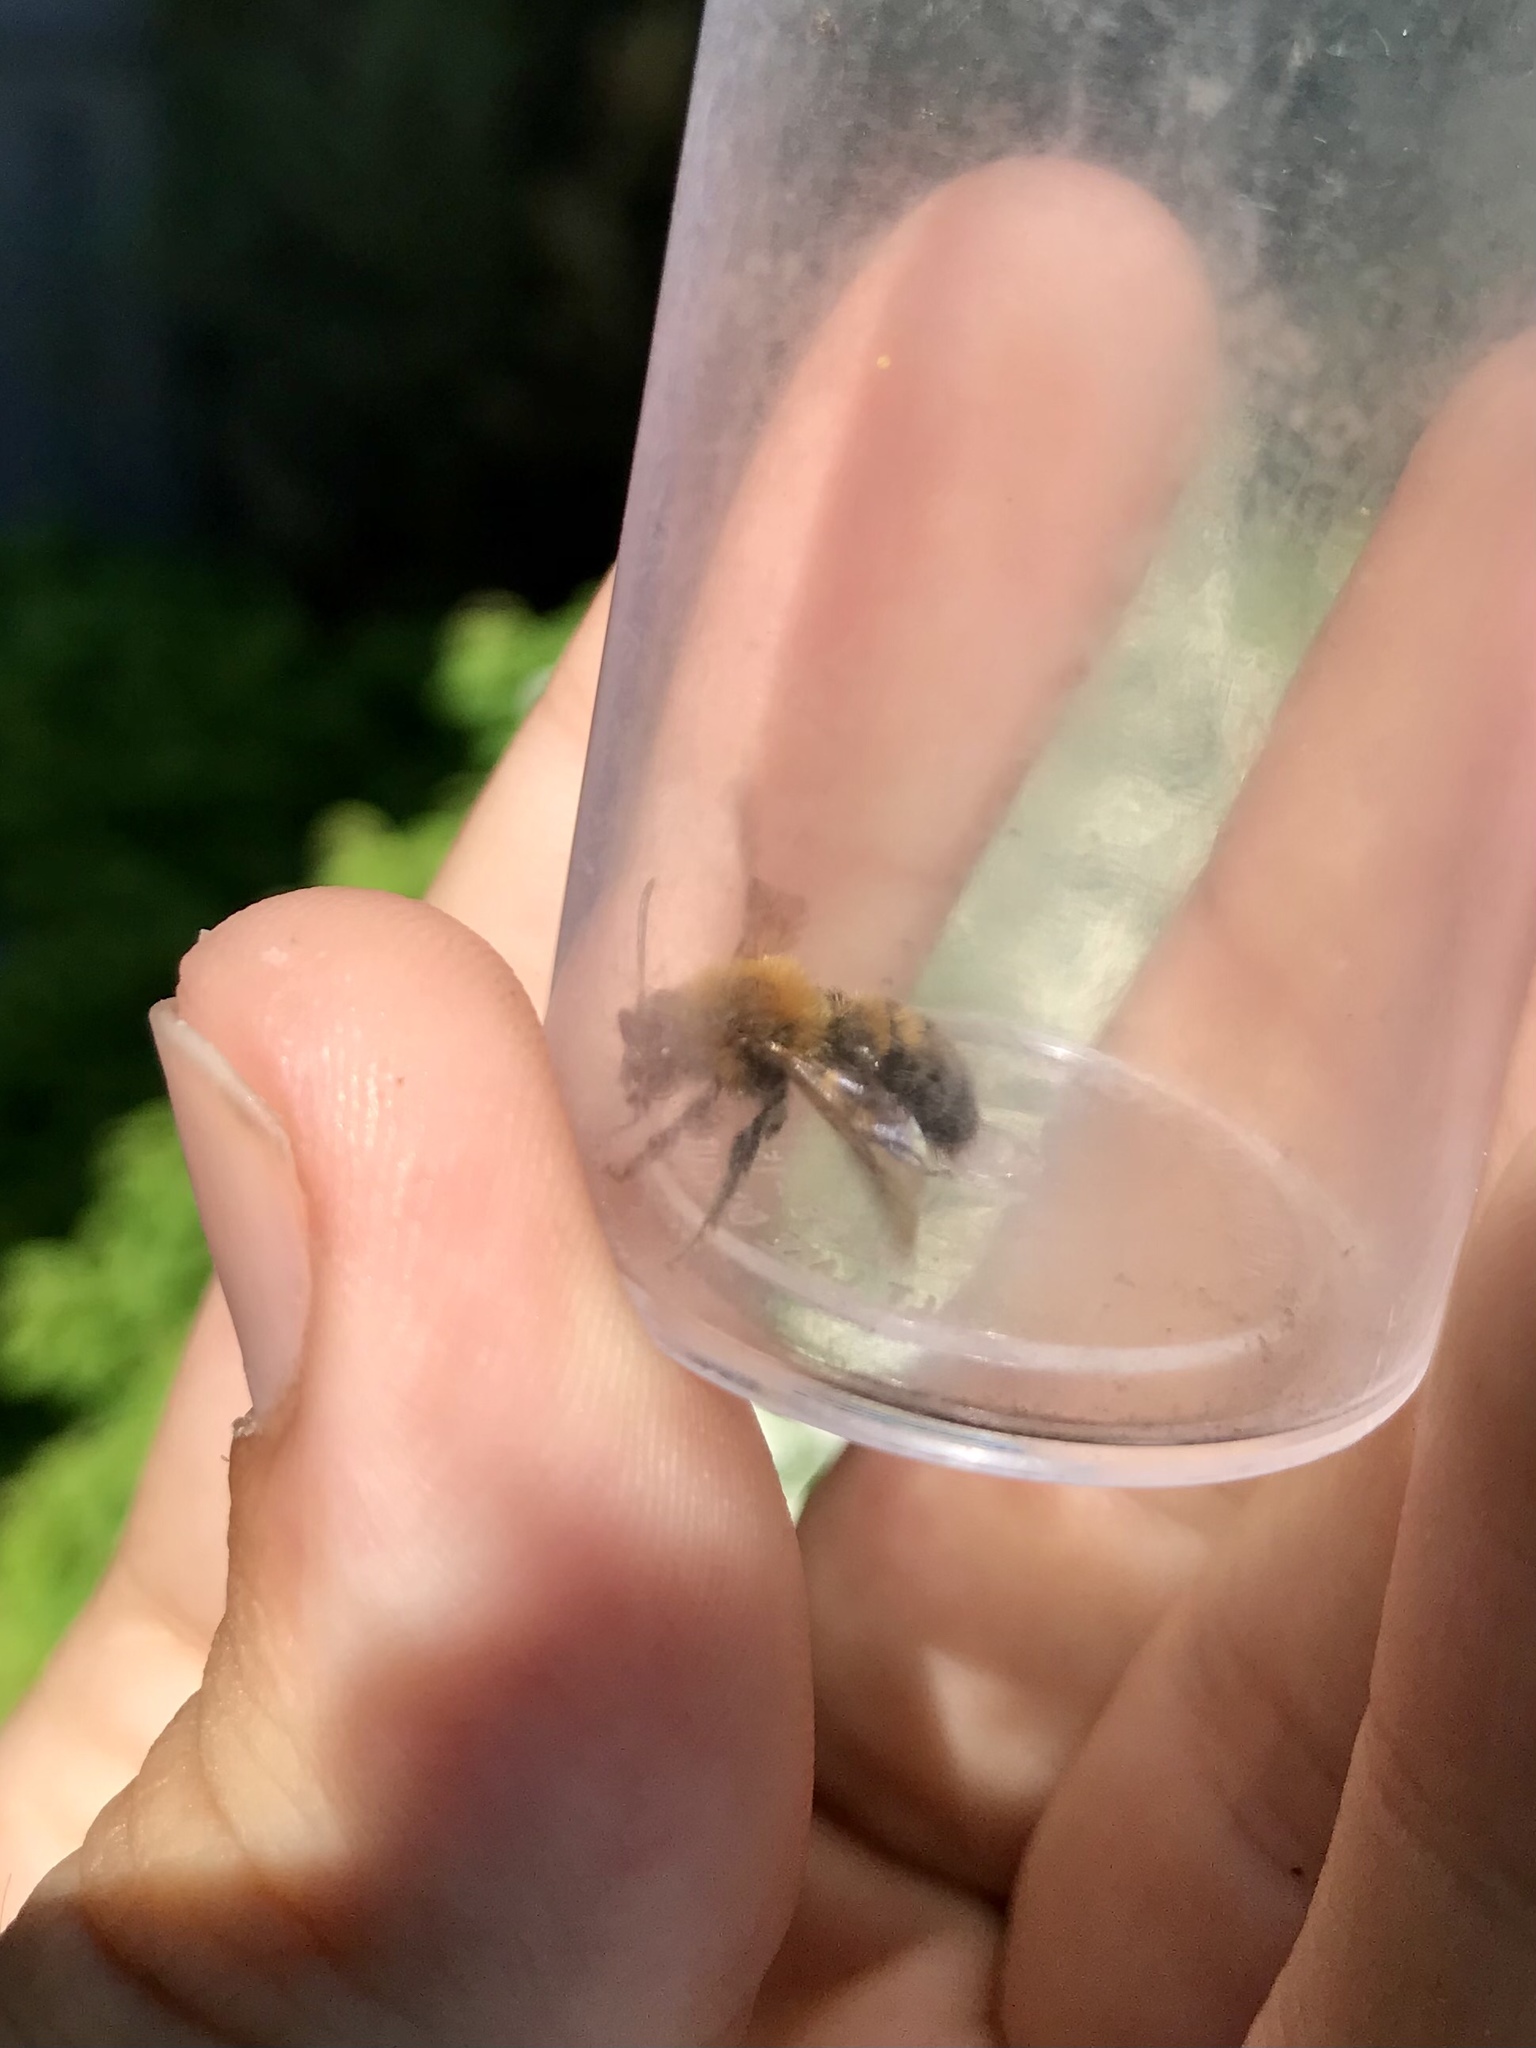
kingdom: Animalia
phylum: Arthropoda
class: Insecta
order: Hymenoptera
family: Andrenidae
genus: Andrena
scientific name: Andrena milwaukeensis
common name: Milwaukee mining bee
